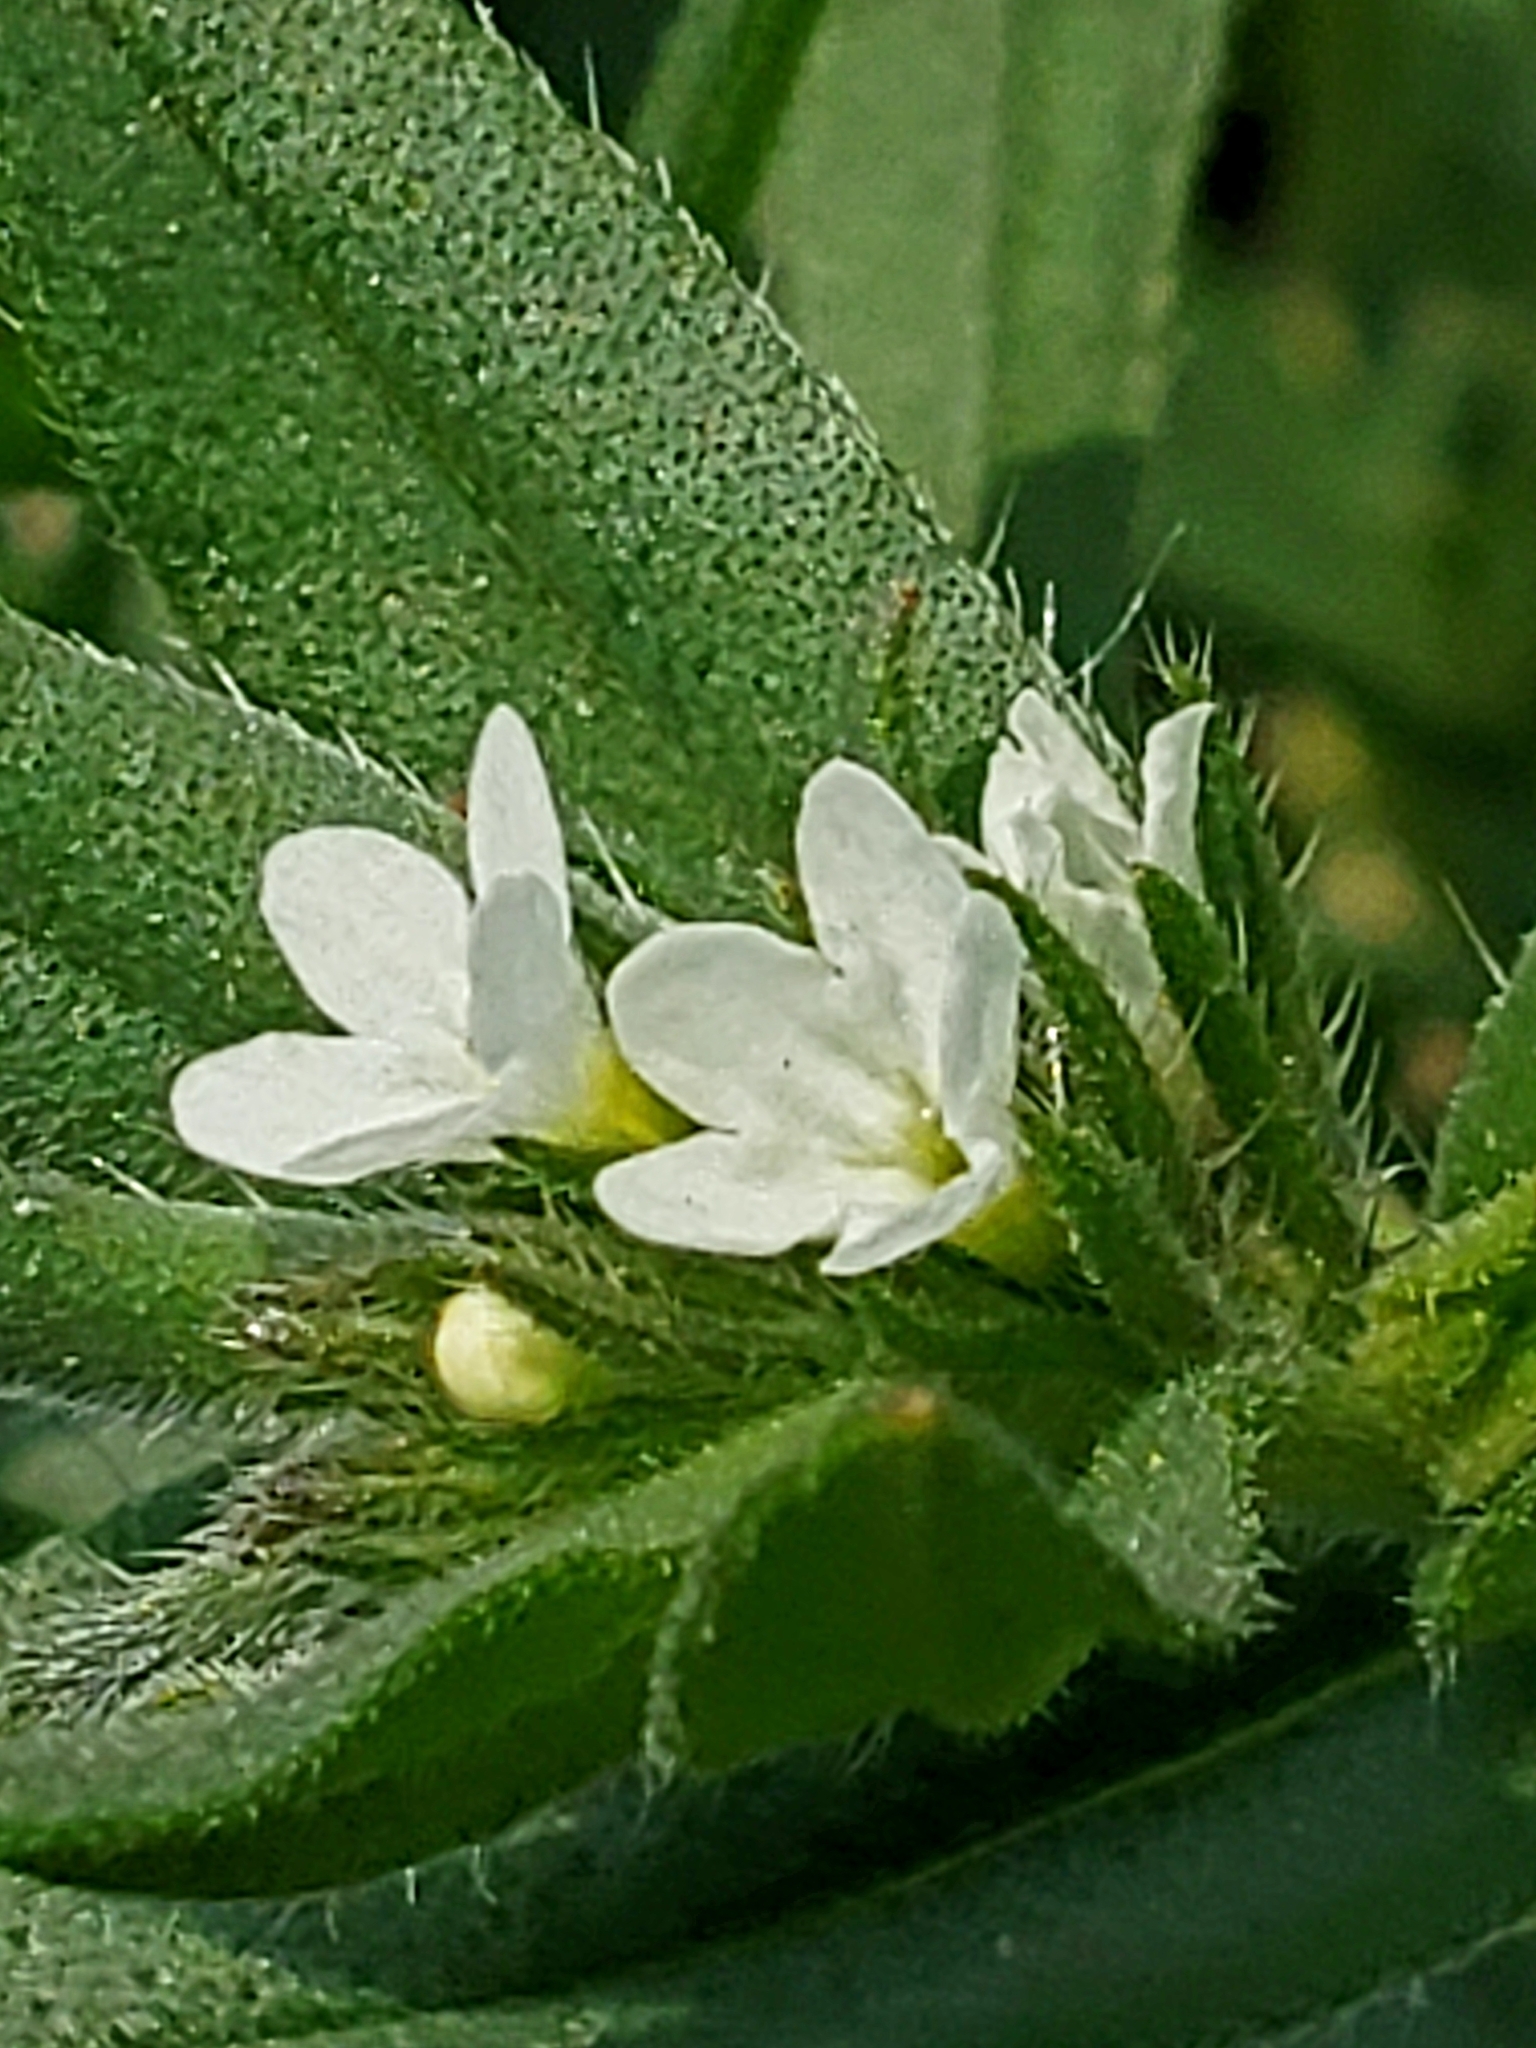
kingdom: Plantae
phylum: Tracheophyta
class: Magnoliopsida
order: Boraginales
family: Boraginaceae
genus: Buglossoides
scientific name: Buglossoides arvensis
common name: Corn gromwell
